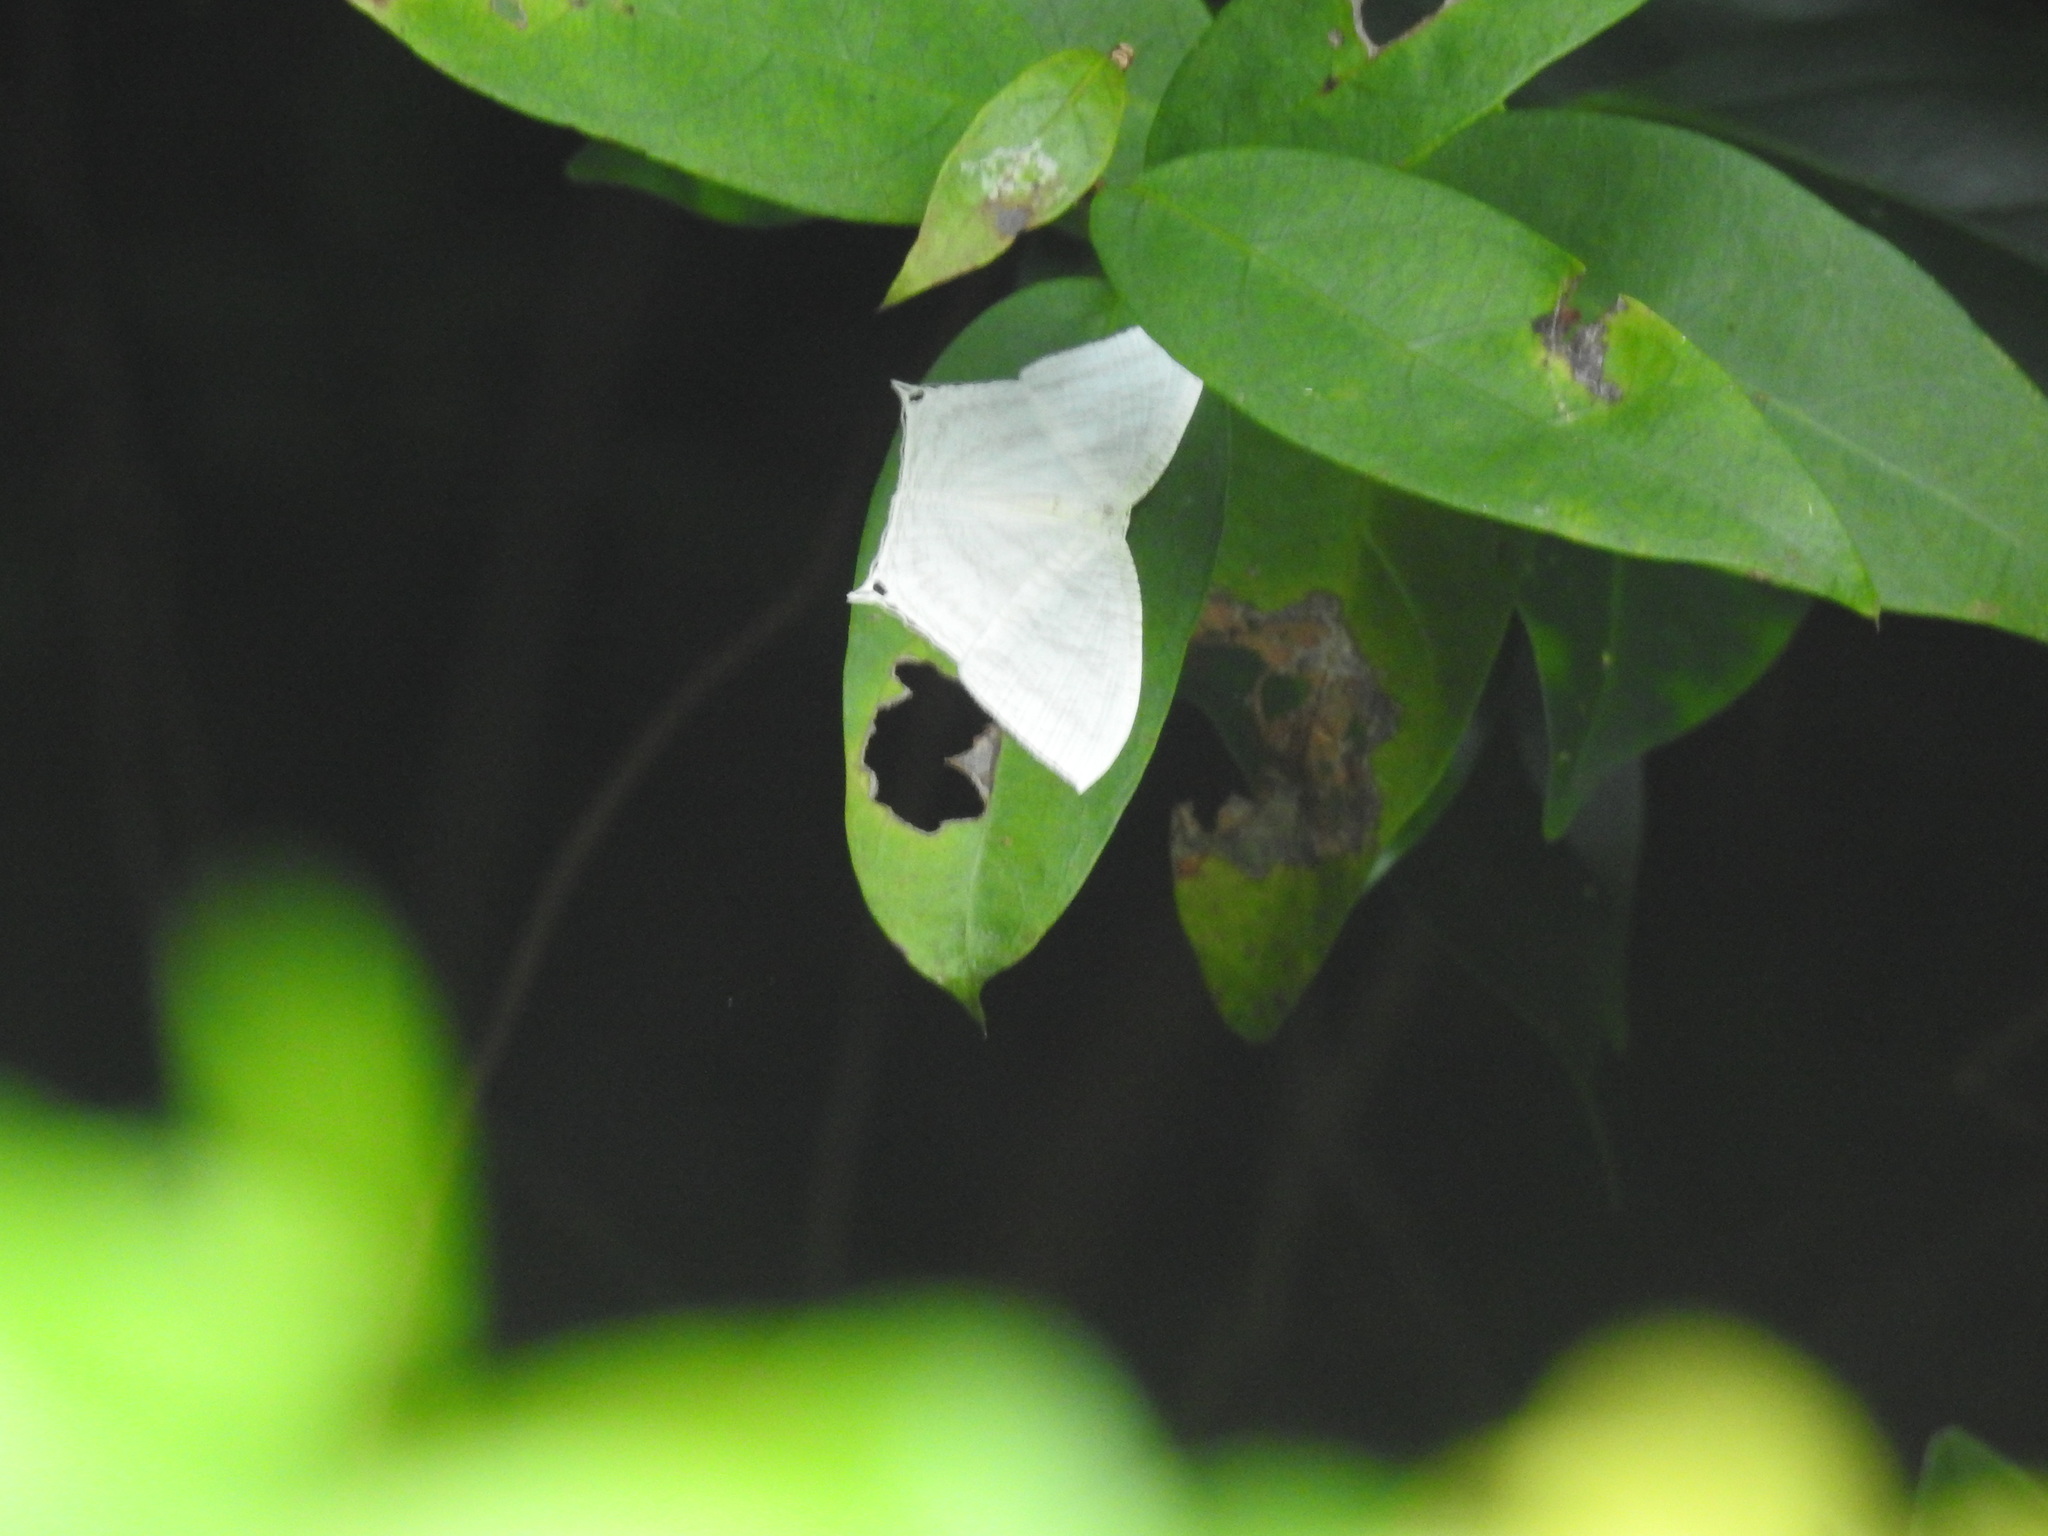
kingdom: Animalia
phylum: Arthropoda
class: Insecta
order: Lepidoptera
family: Uraniidae
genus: Micronia
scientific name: Micronia aculeata
